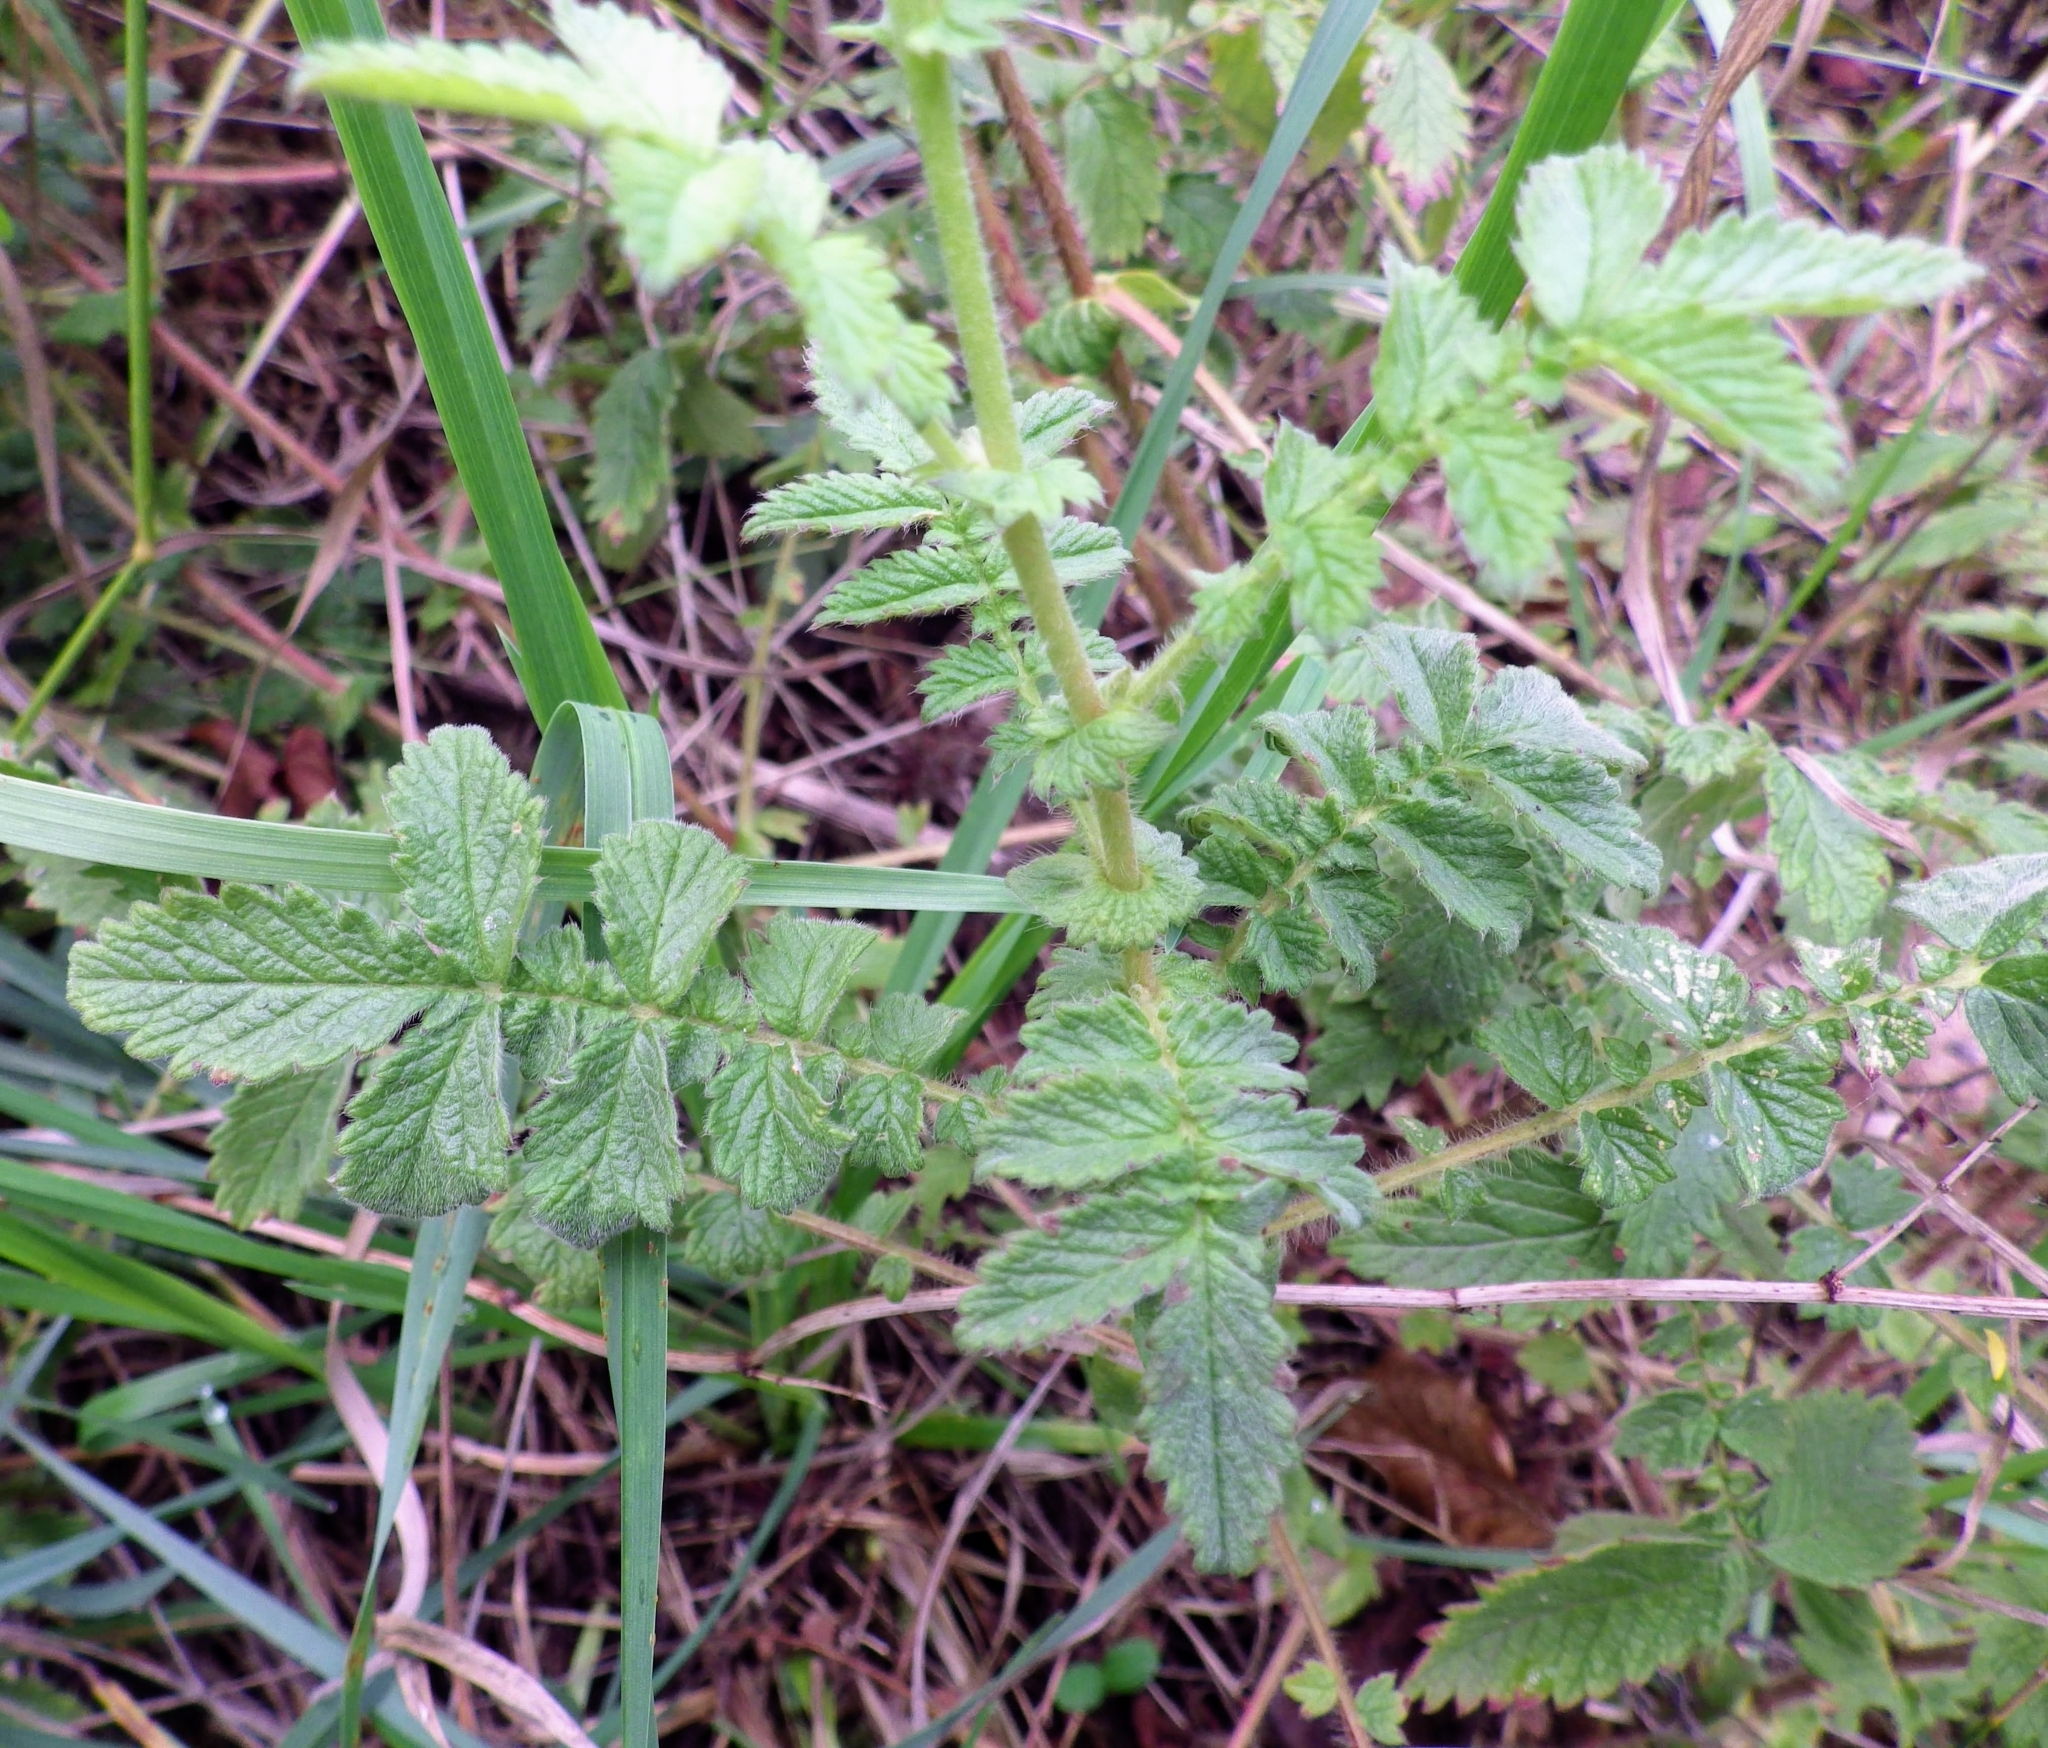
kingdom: Plantae
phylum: Tracheophyta
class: Magnoliopsida
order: Rosales
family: Rosaceae
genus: Agrimonia
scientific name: Agrimonia eupatoria
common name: Agrimony
